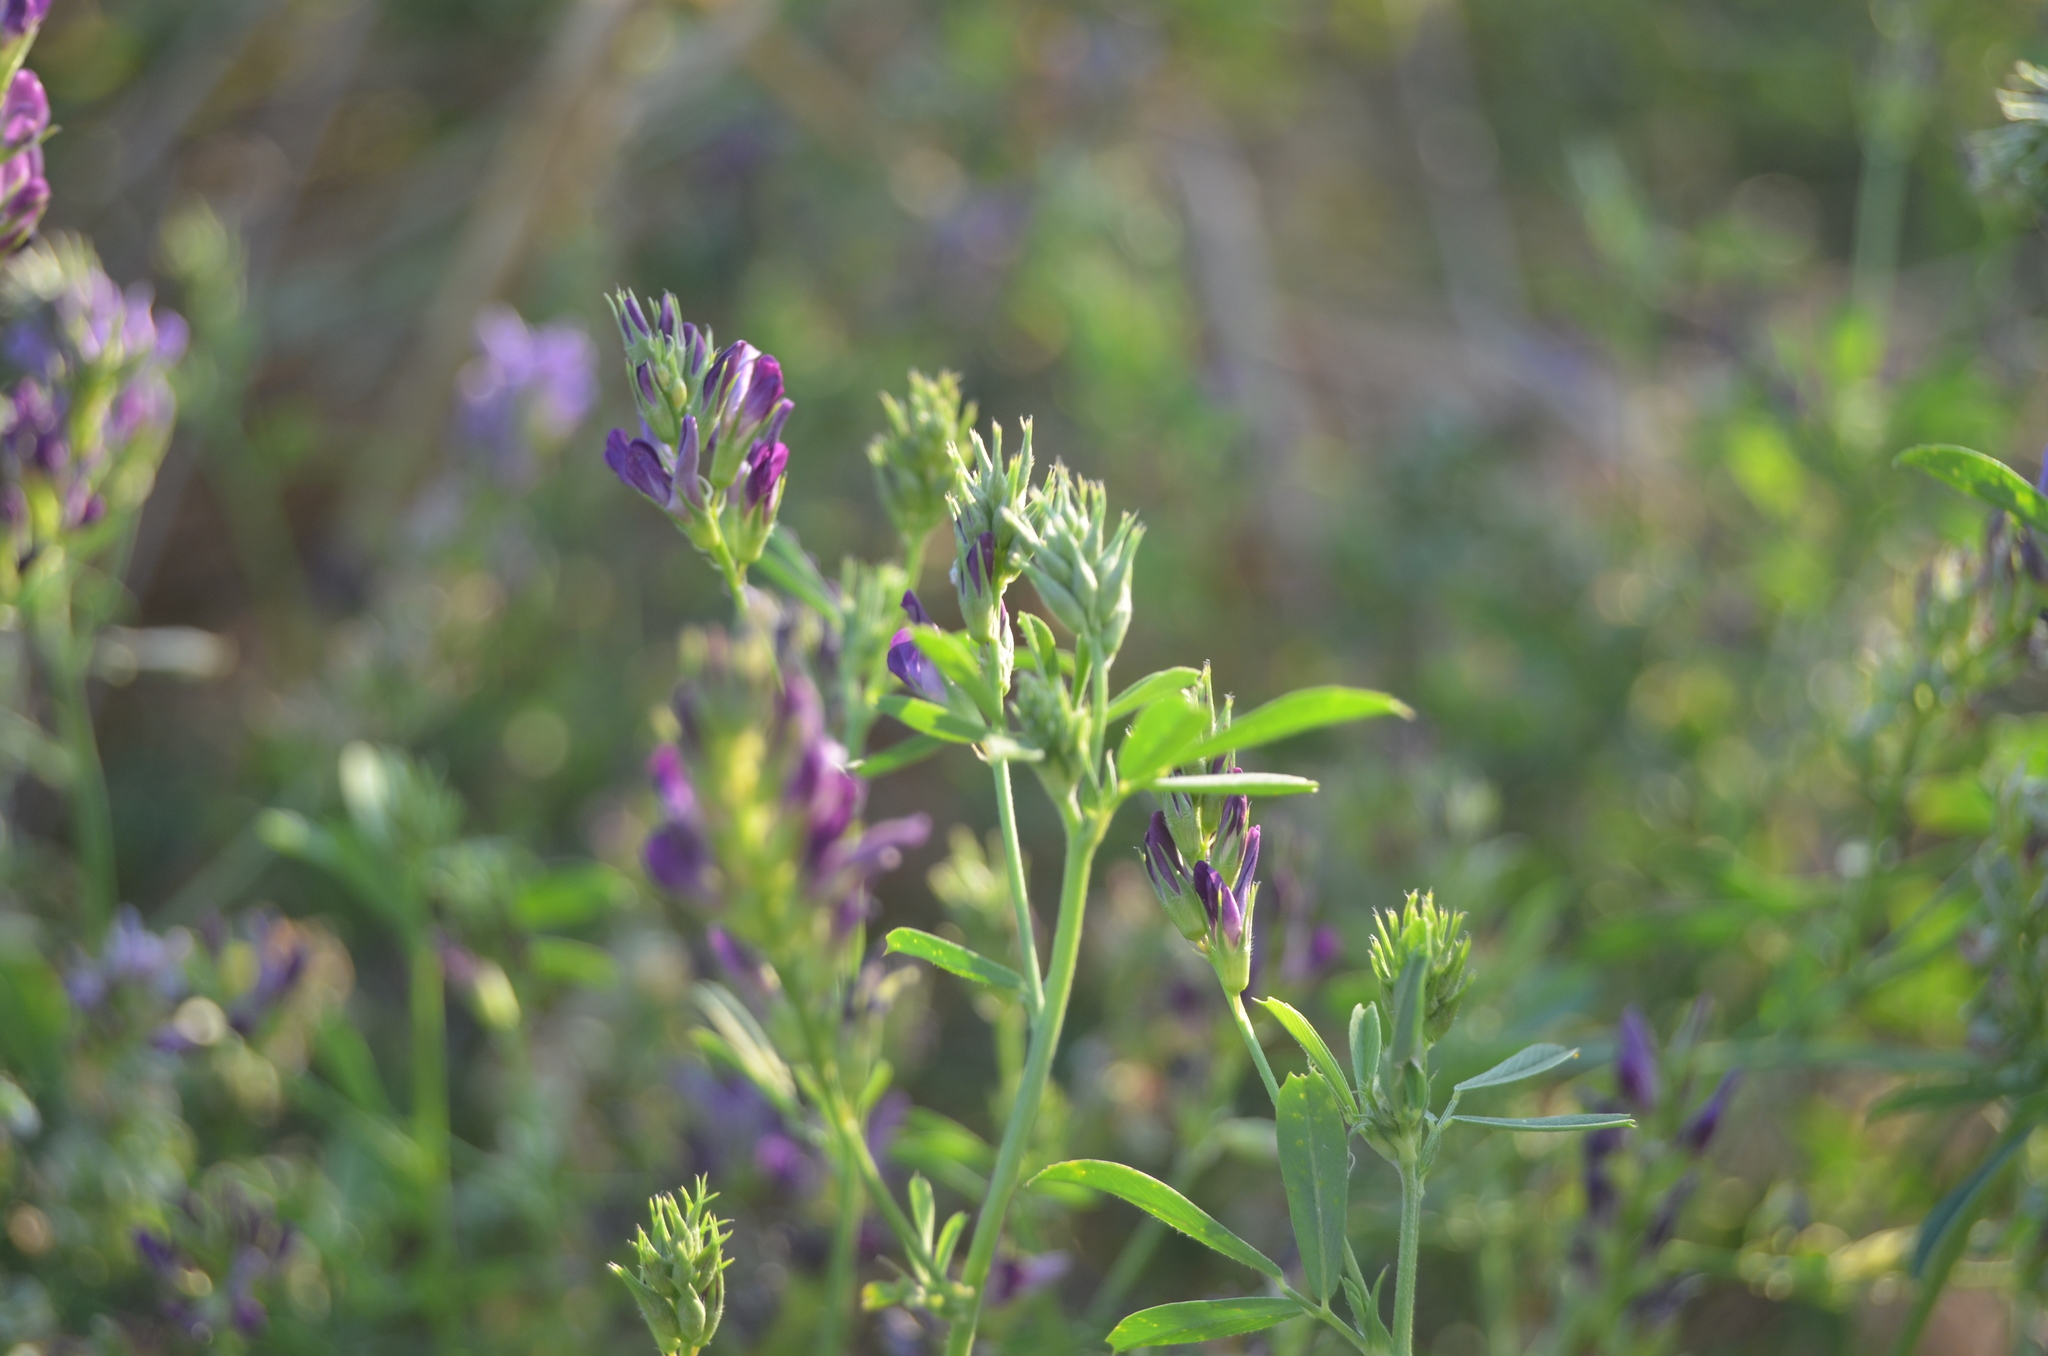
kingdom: Plantae
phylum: Tracheophyta
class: Magnoliopsida
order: Fabales
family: Fabaceae
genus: Medicago
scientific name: Medicago sativa
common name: Alfalfa
